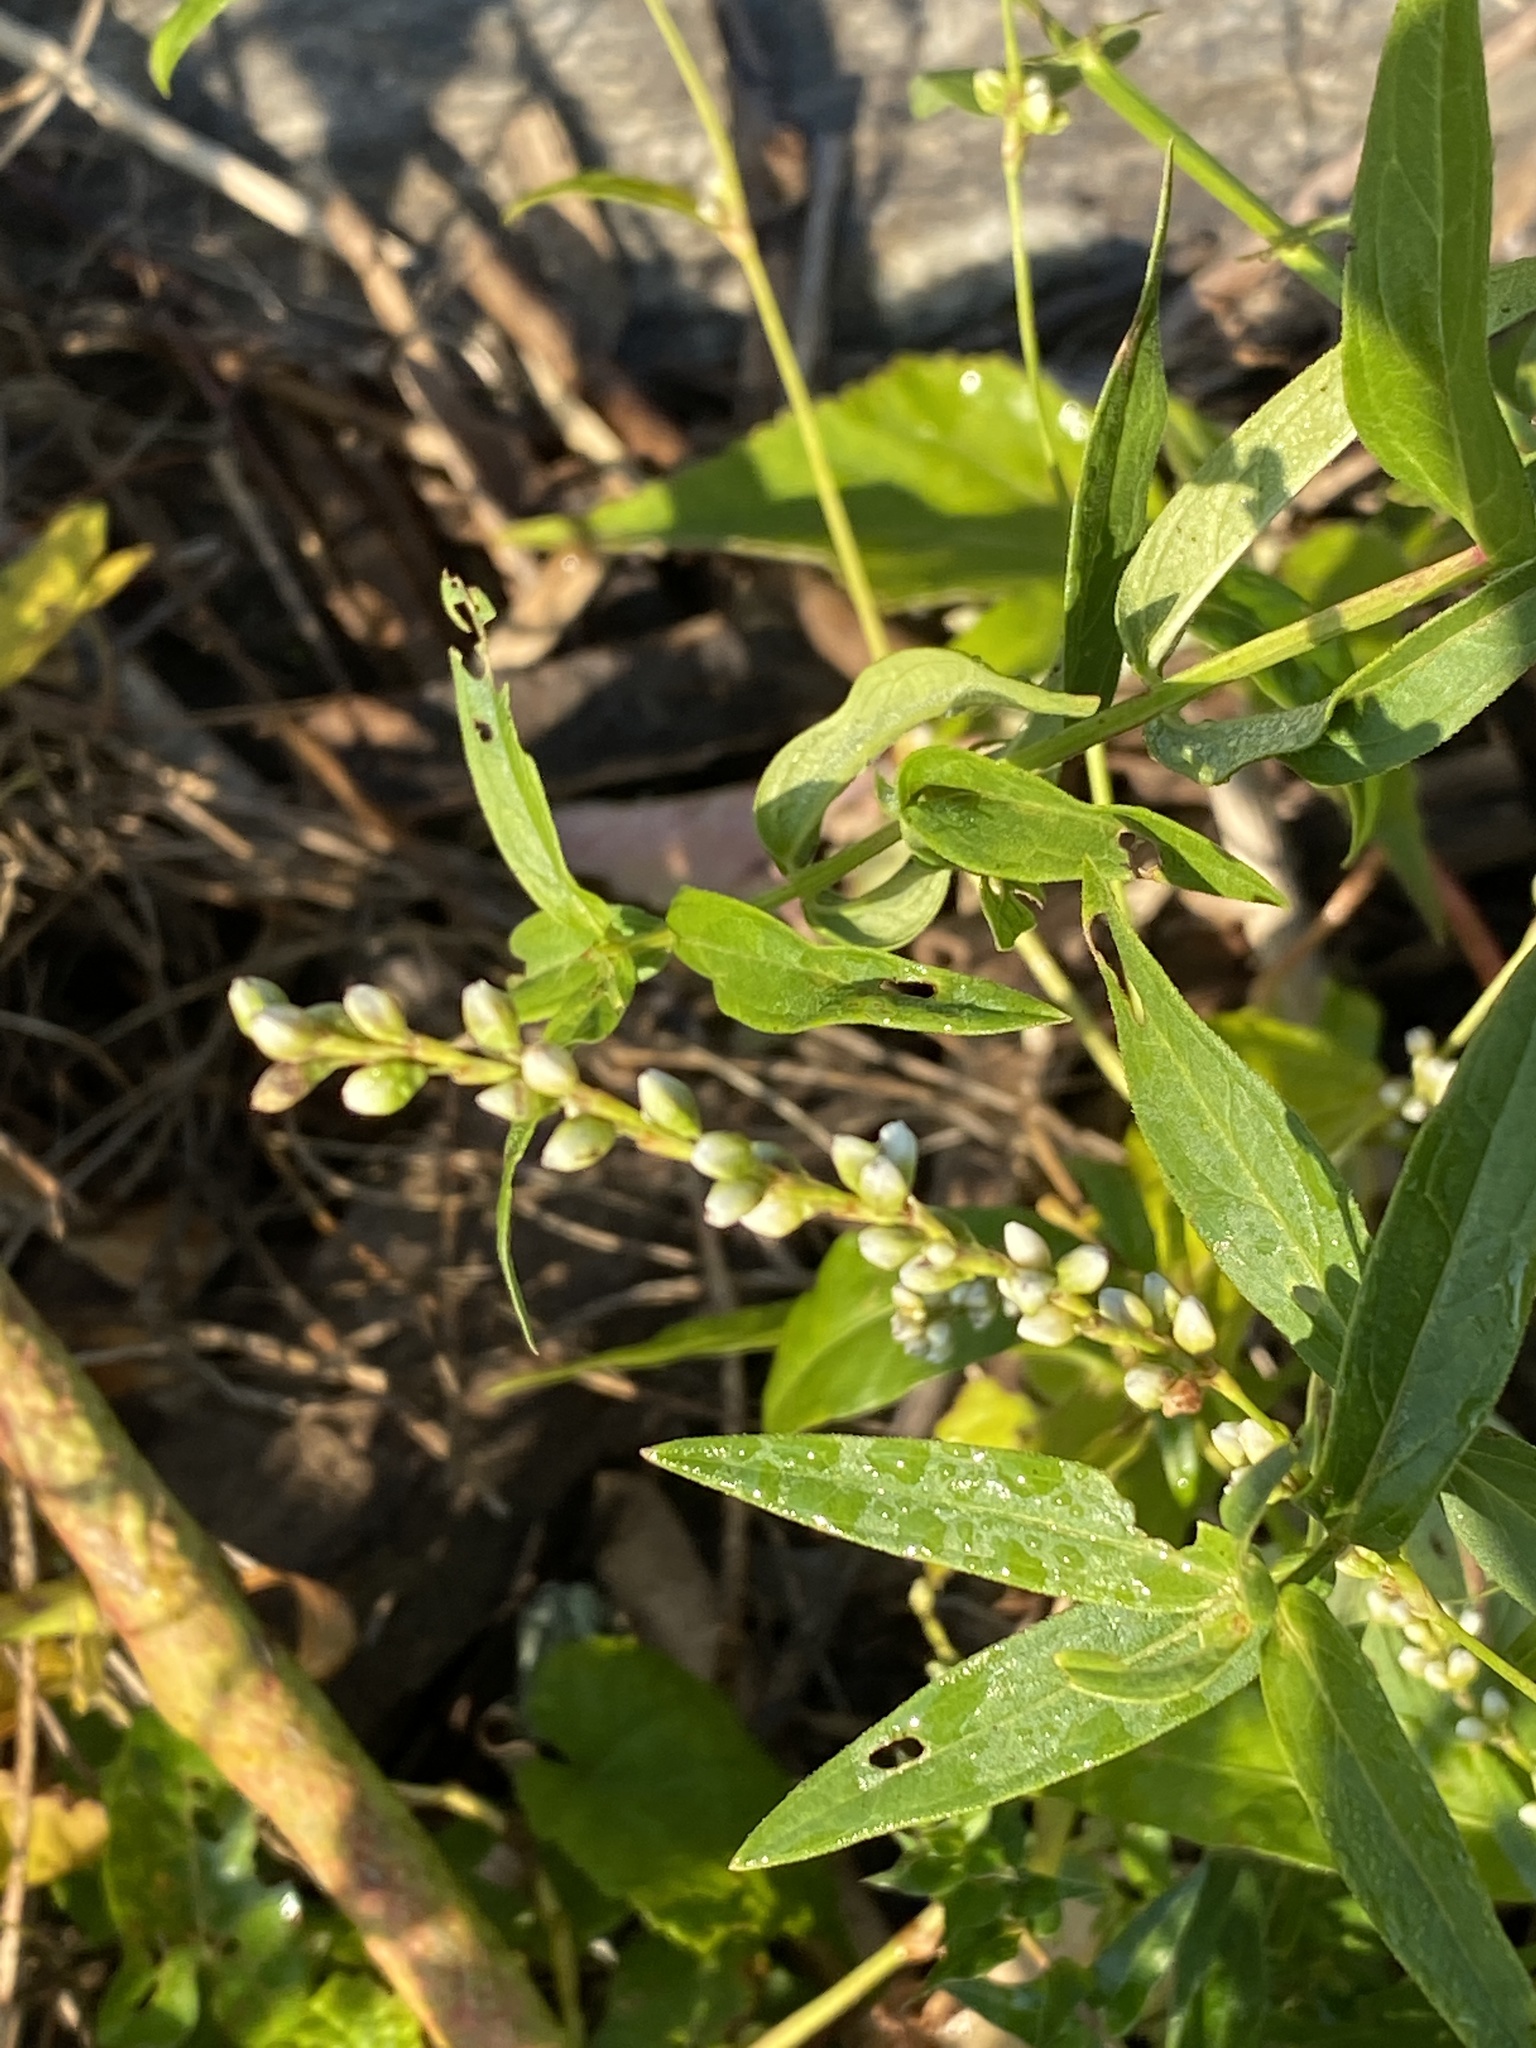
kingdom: Plantae
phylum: Tracheophyta
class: Magnoliopsida
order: Caryophyllales
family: Polygonaceae
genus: Persicaria
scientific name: Persicaria punctata
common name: Dotted smartweed
